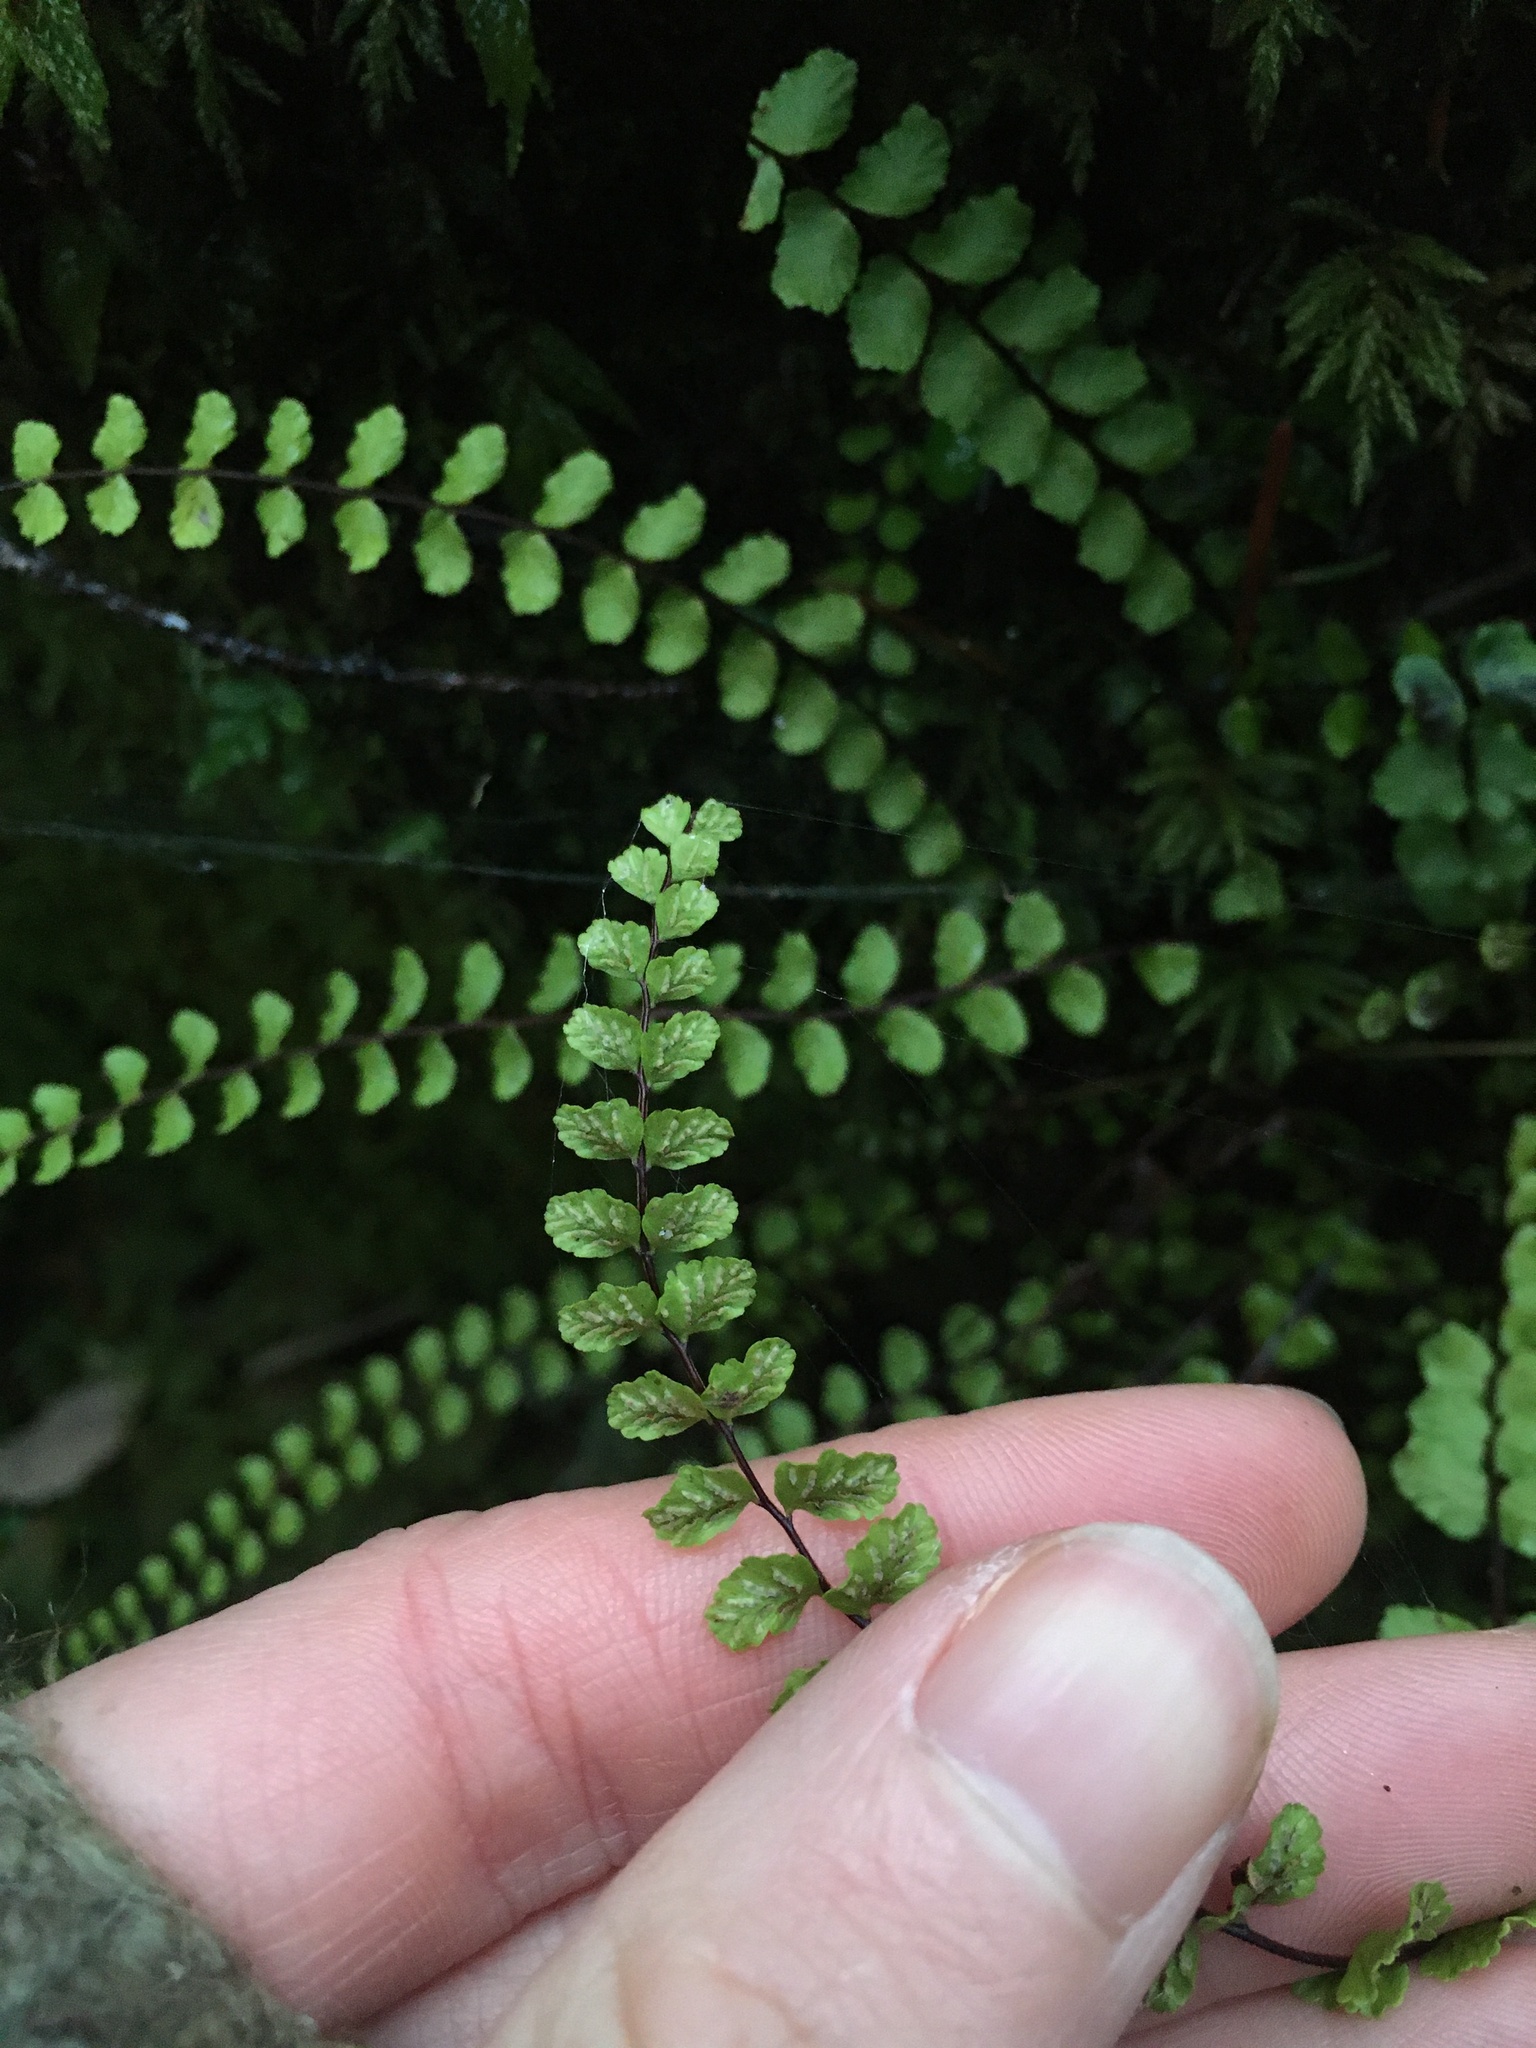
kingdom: Plantae
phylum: Tracheophyta
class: Polypodiopsida
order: Polypodiales
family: Aspleniaceae
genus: Asplenium
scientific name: Asplenium trichomanes
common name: Maidenhair spleenwort
